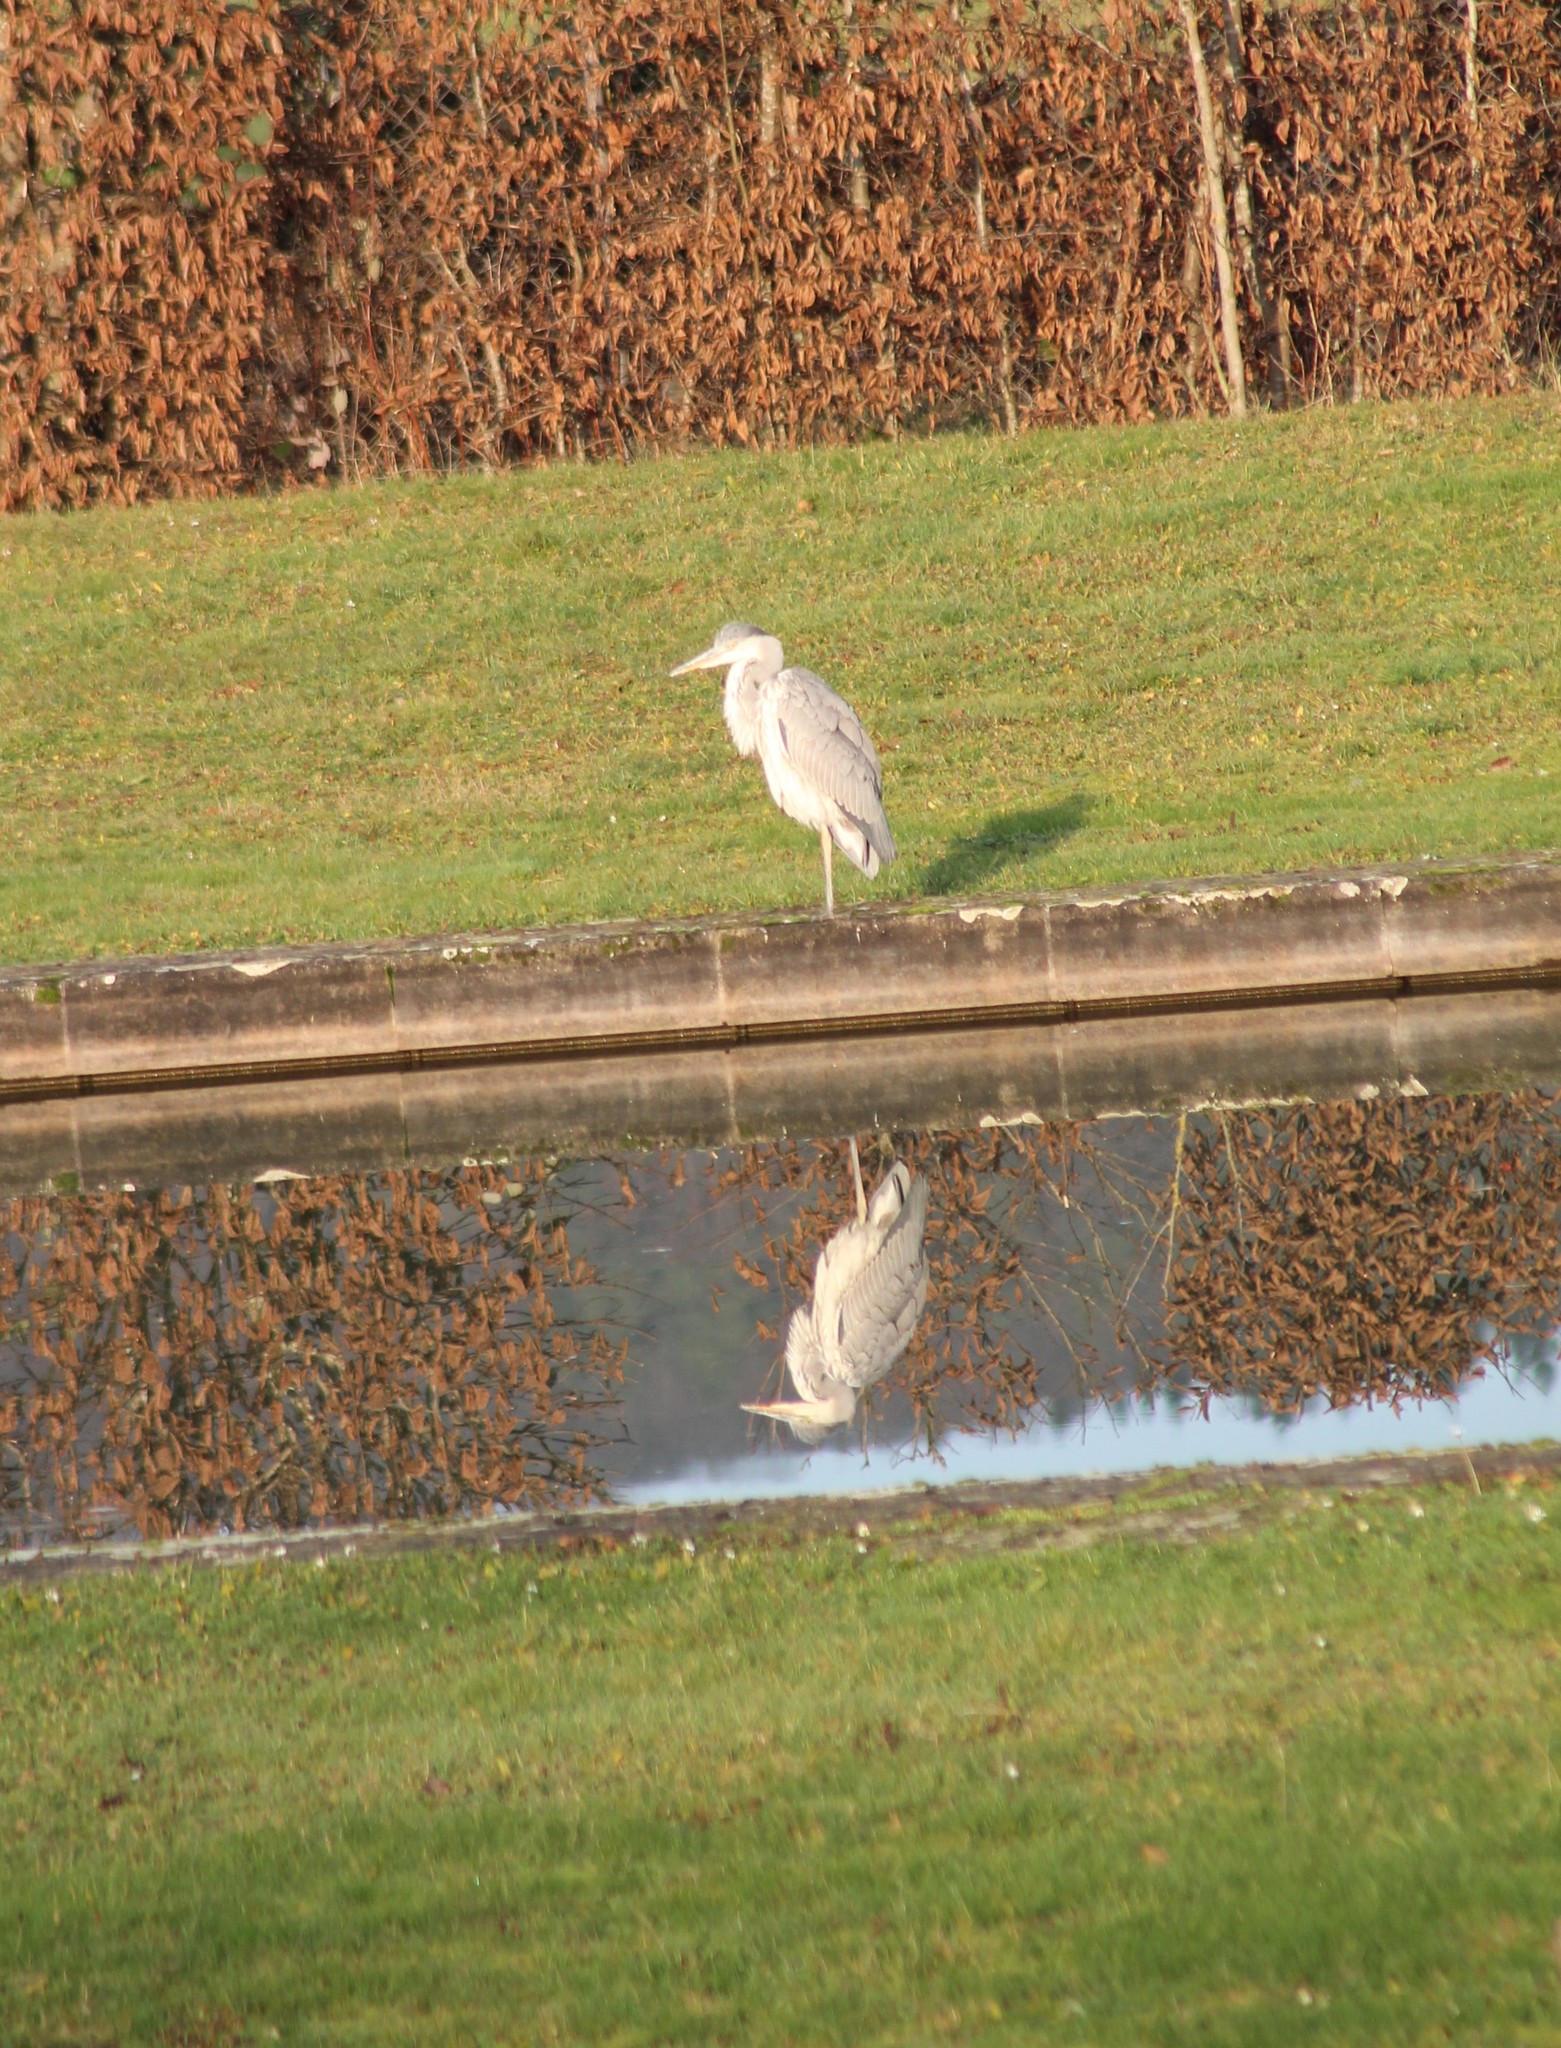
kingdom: Animalia
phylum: Chordata
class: Aves
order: Pelecaniformes
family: Ardeidae
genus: Ardea
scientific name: Ardea cinerea
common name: Grey heron
